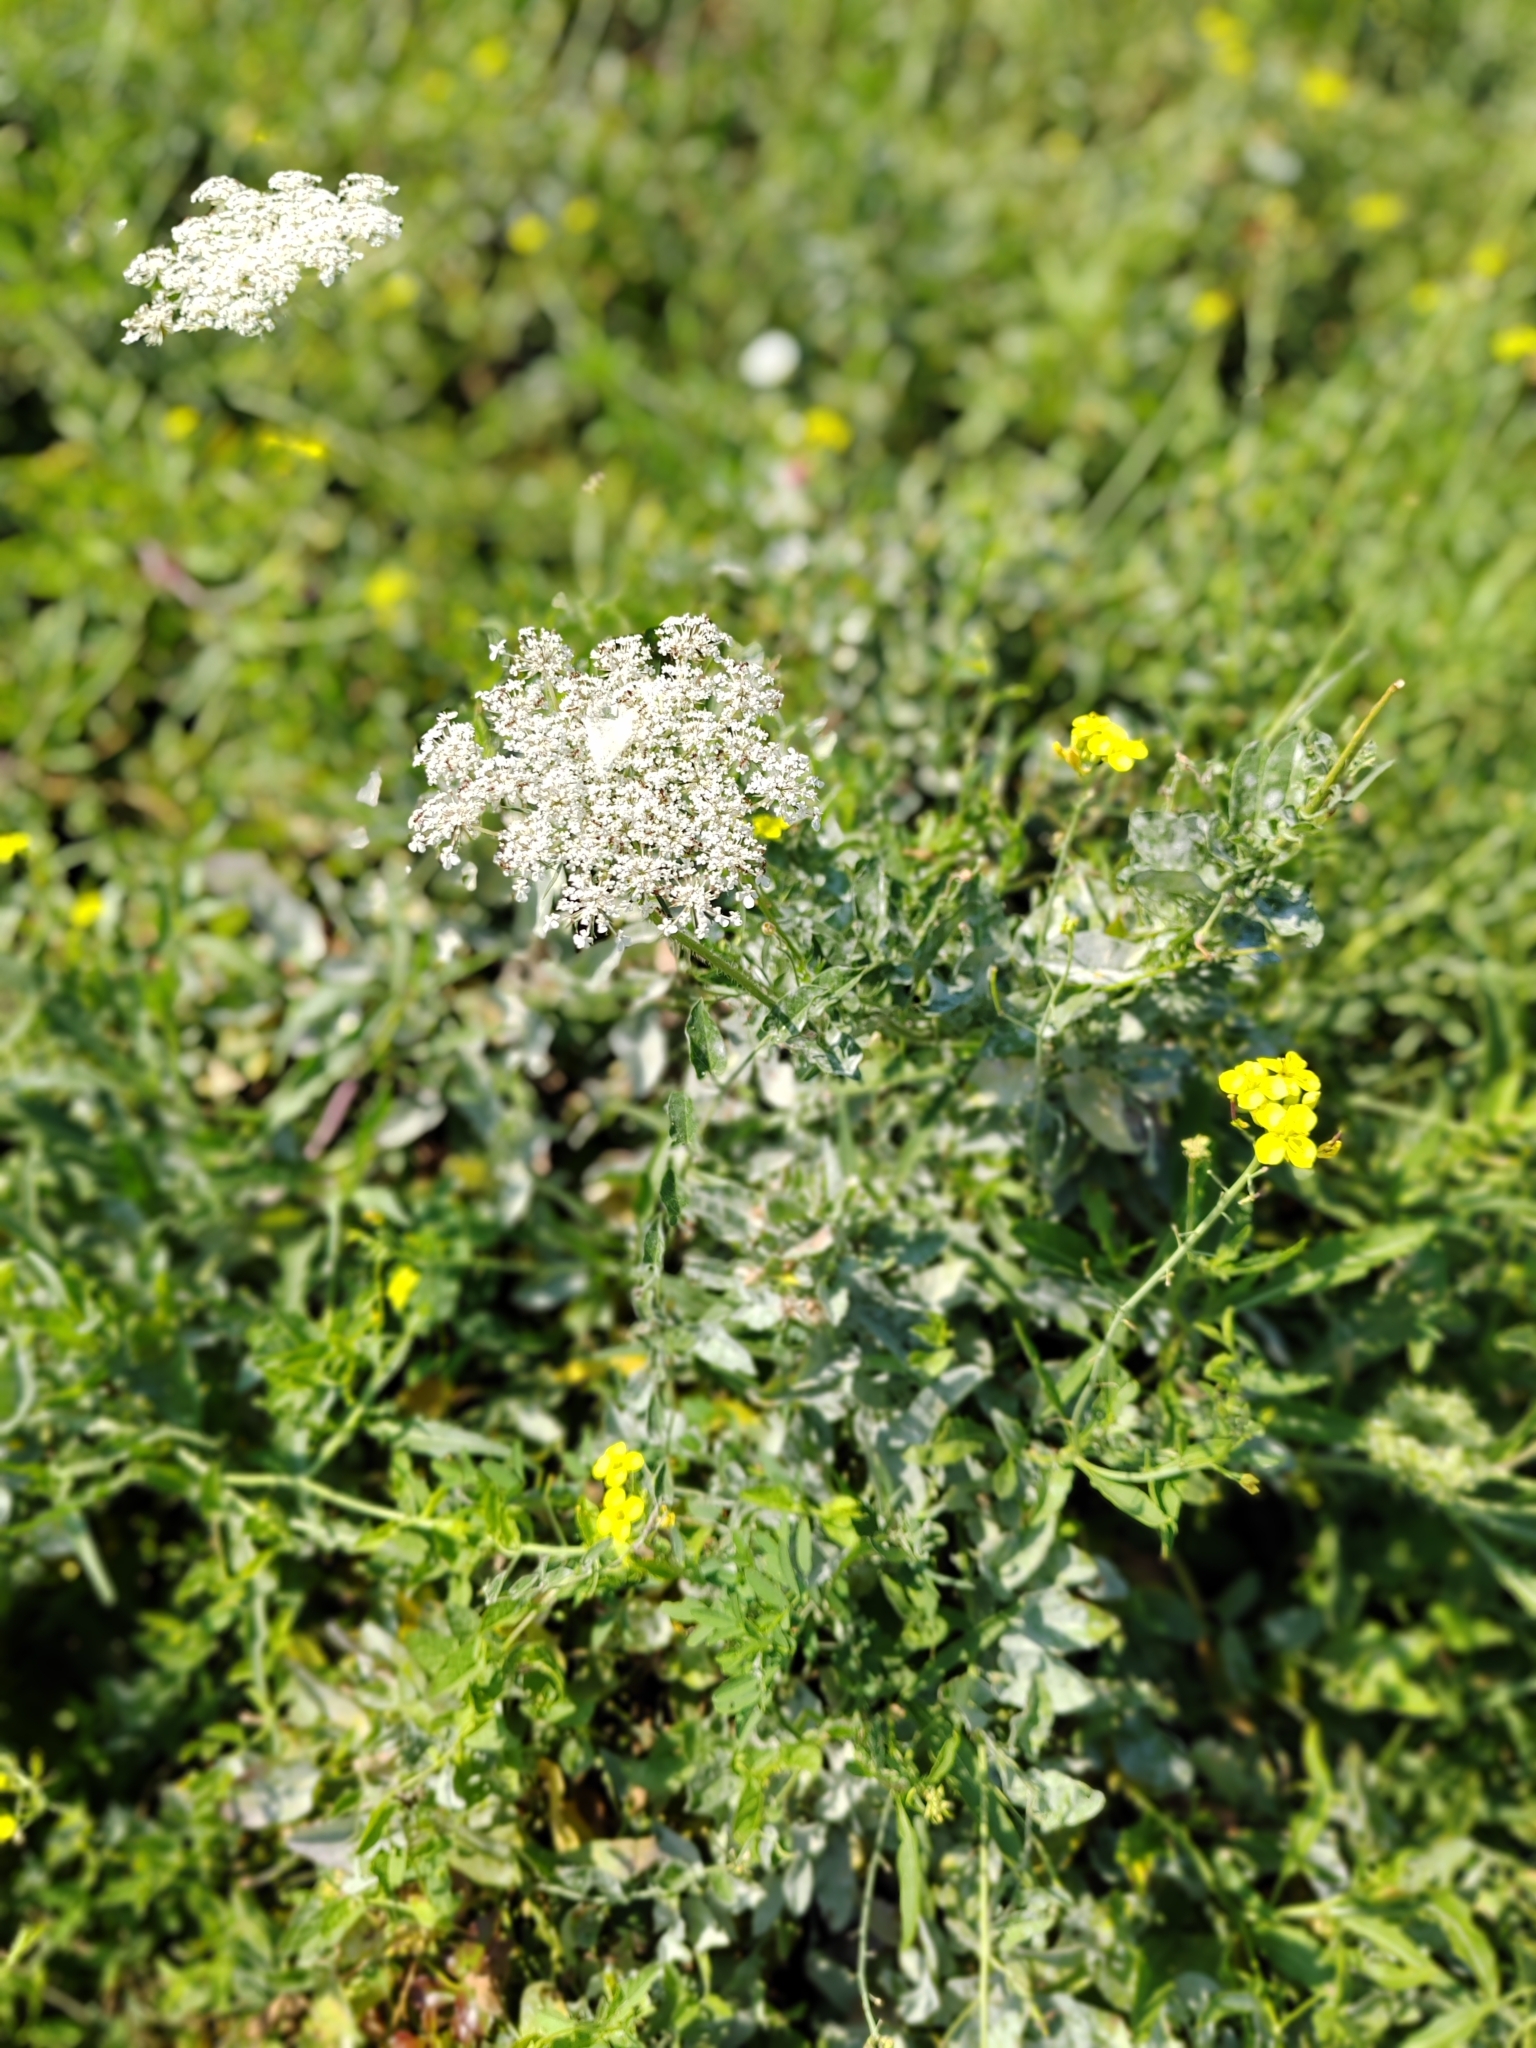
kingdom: Plantae
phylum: Tracheophyta
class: Magnoliopsida
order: Apiales
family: Apiaceae
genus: Daucus
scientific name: Daucus carota
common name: Wild carrot
